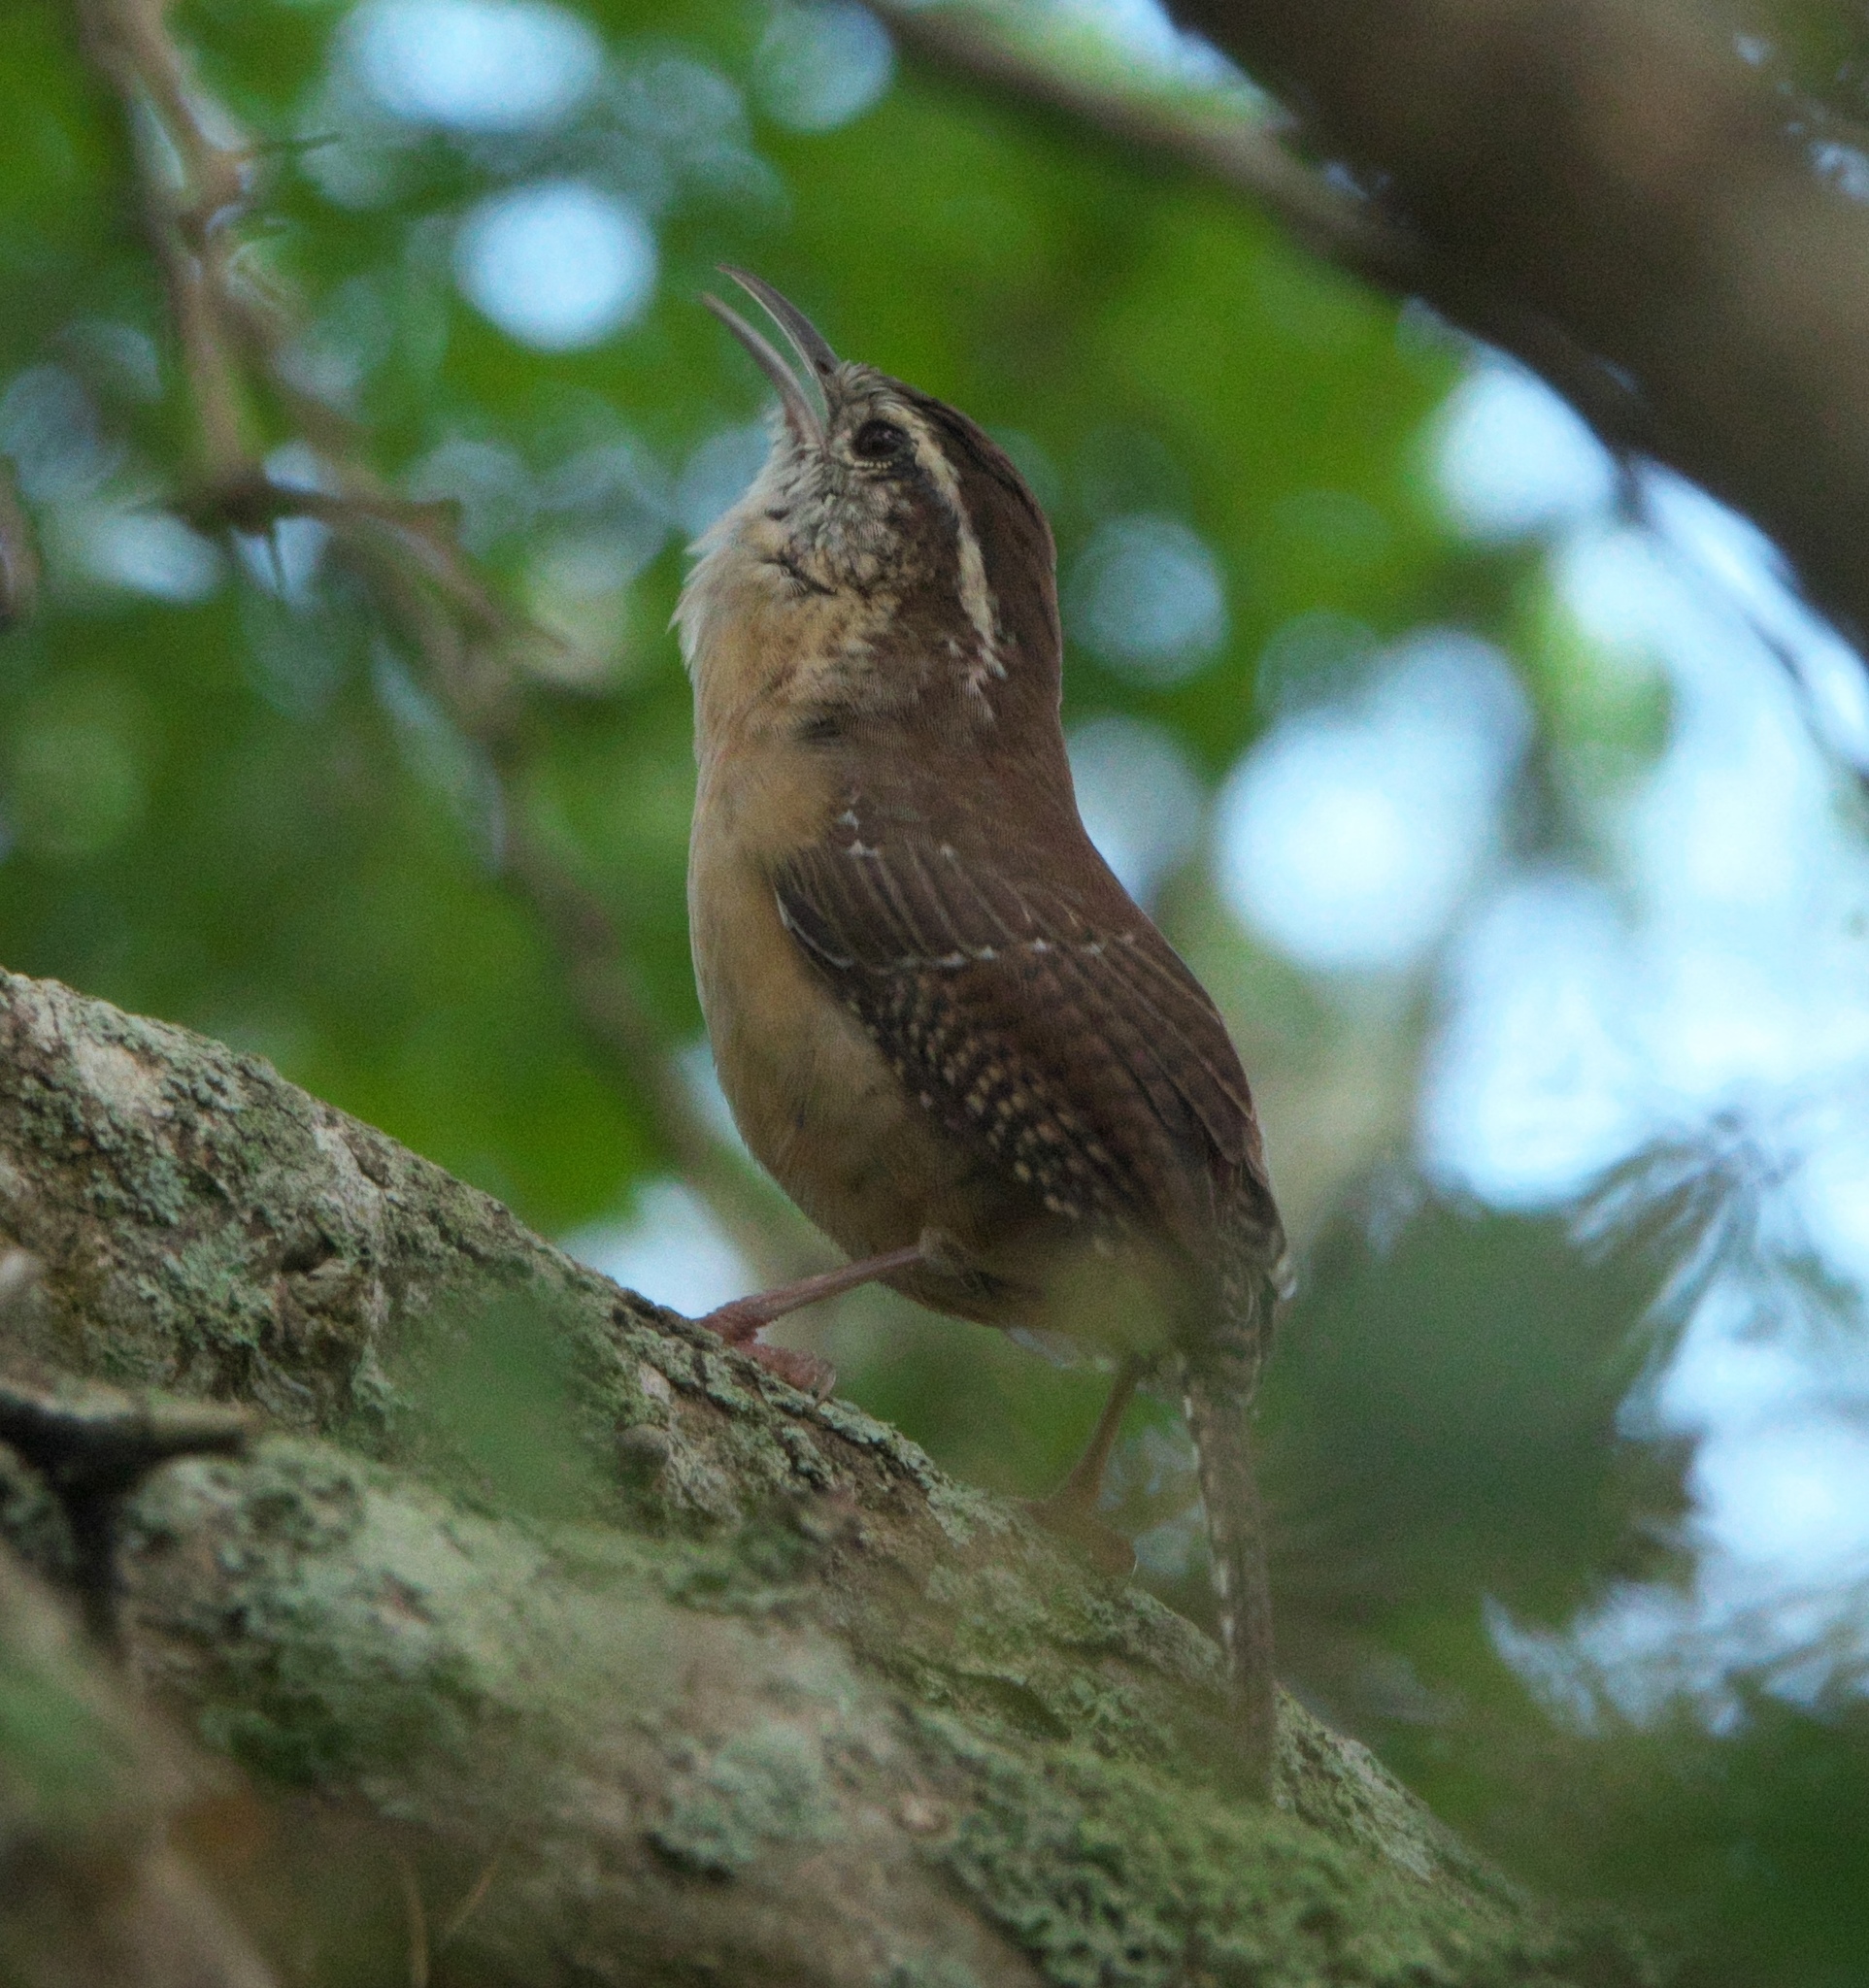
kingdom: Animalia
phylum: Chordata
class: Aves
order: Passeriformes
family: Troglodytidae
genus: Thryothorus
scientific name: Thryothorus ludovicianus
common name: Carolina wren
